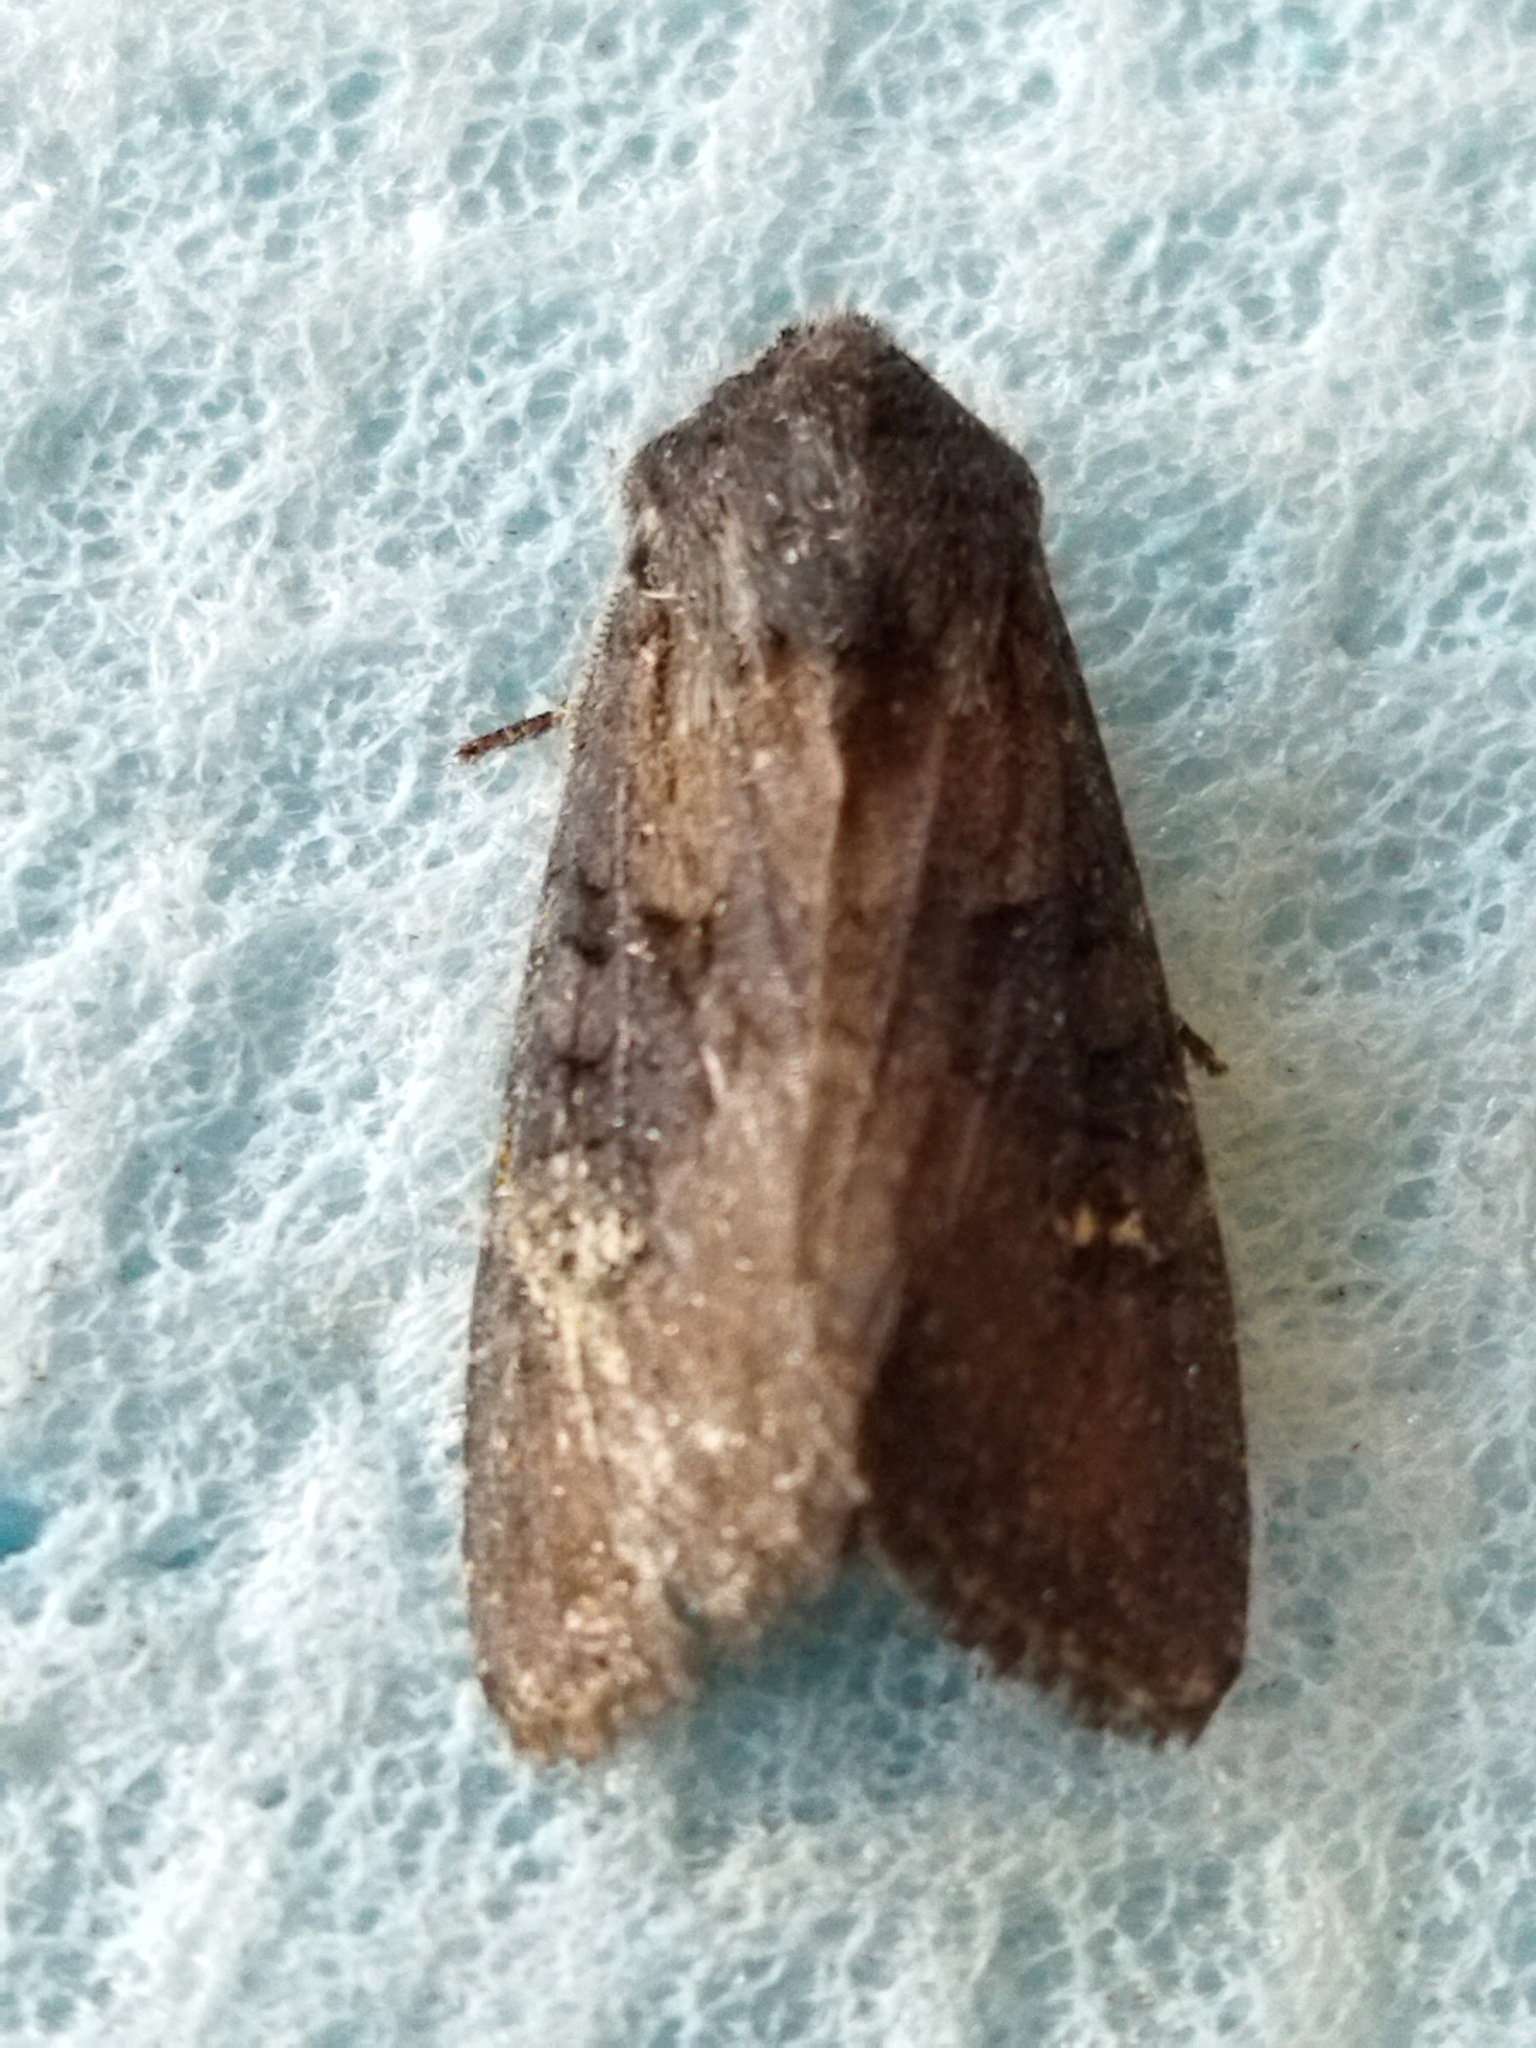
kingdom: Animalia
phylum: Arthropoda
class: Insecta
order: Lepidoptera
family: Noctuidae
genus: Aporophyla
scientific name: Aporophyla nigra
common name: Black rustic
